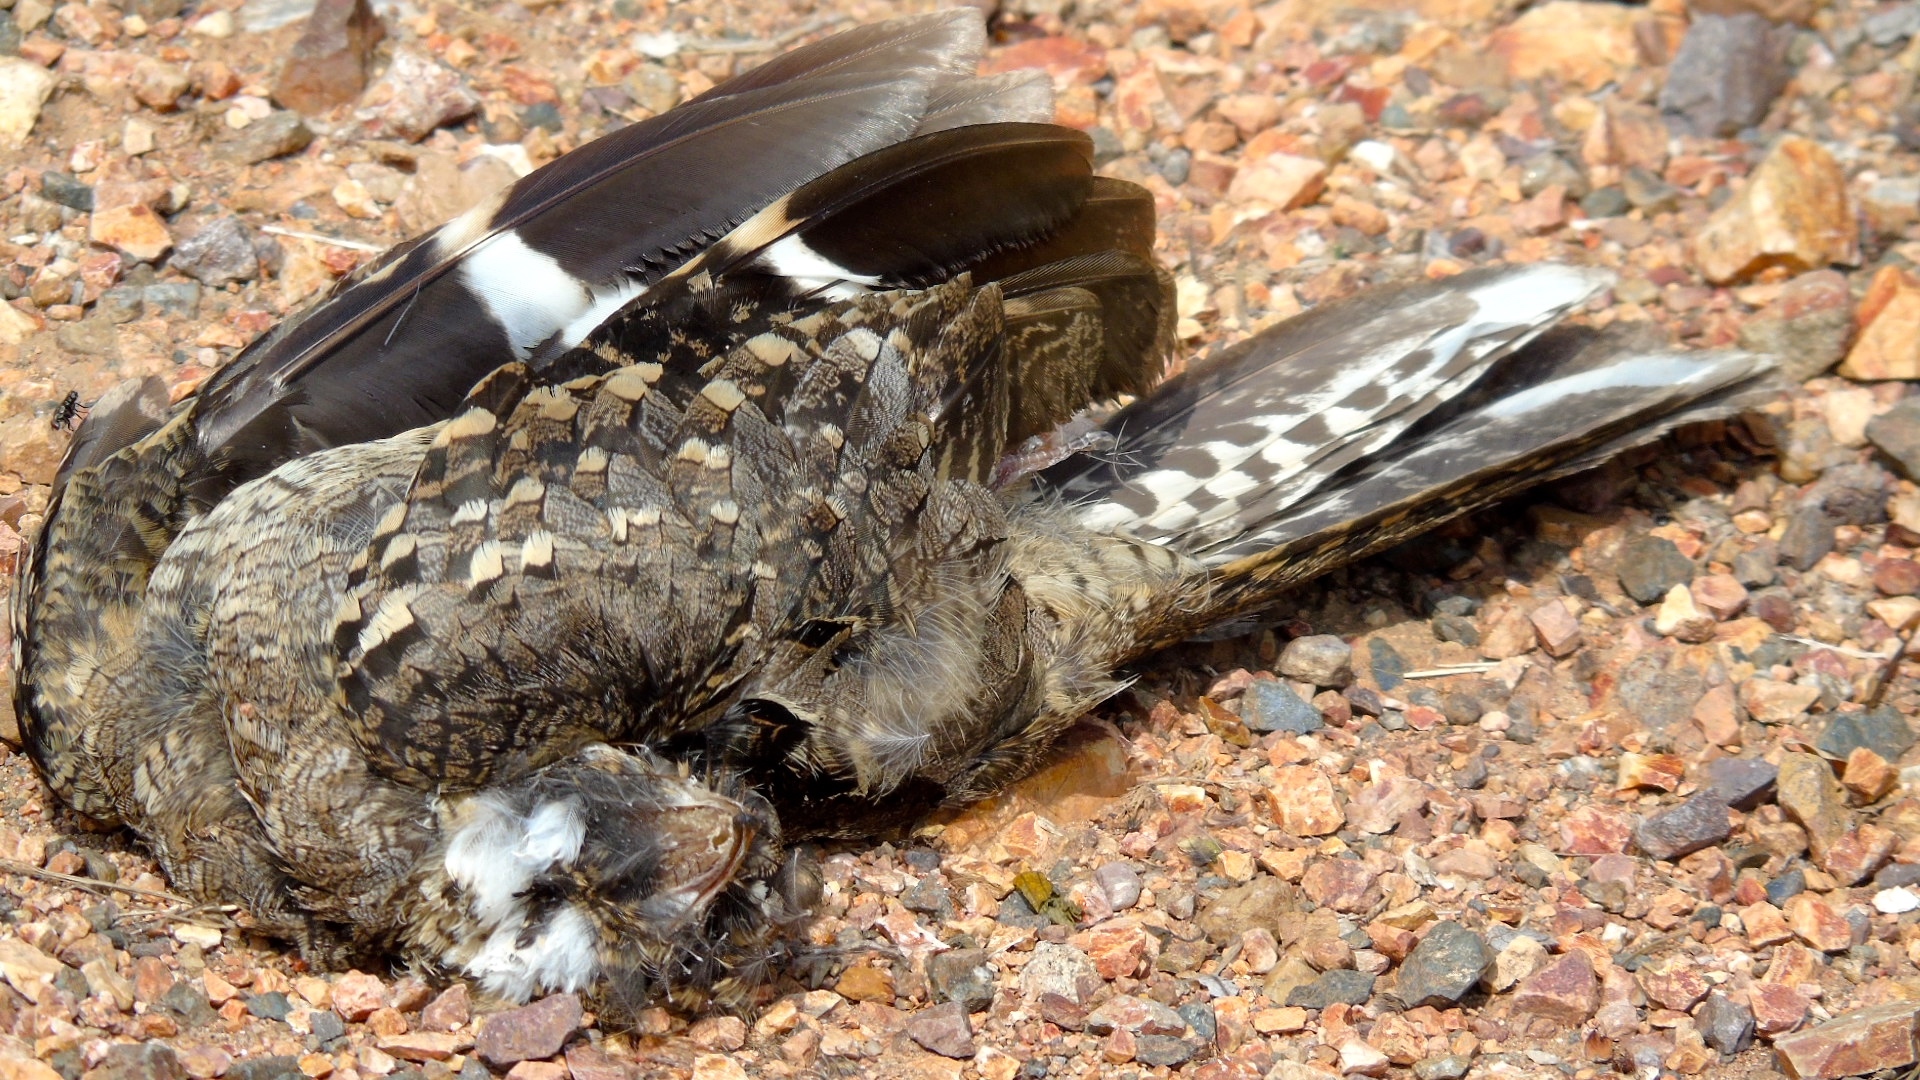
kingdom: Animalia
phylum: Chordata
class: Aves
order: Caprimulgiformes
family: Caprimulgidae
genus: Chordeiles
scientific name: Chordeiles minor
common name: Common nighthawk
